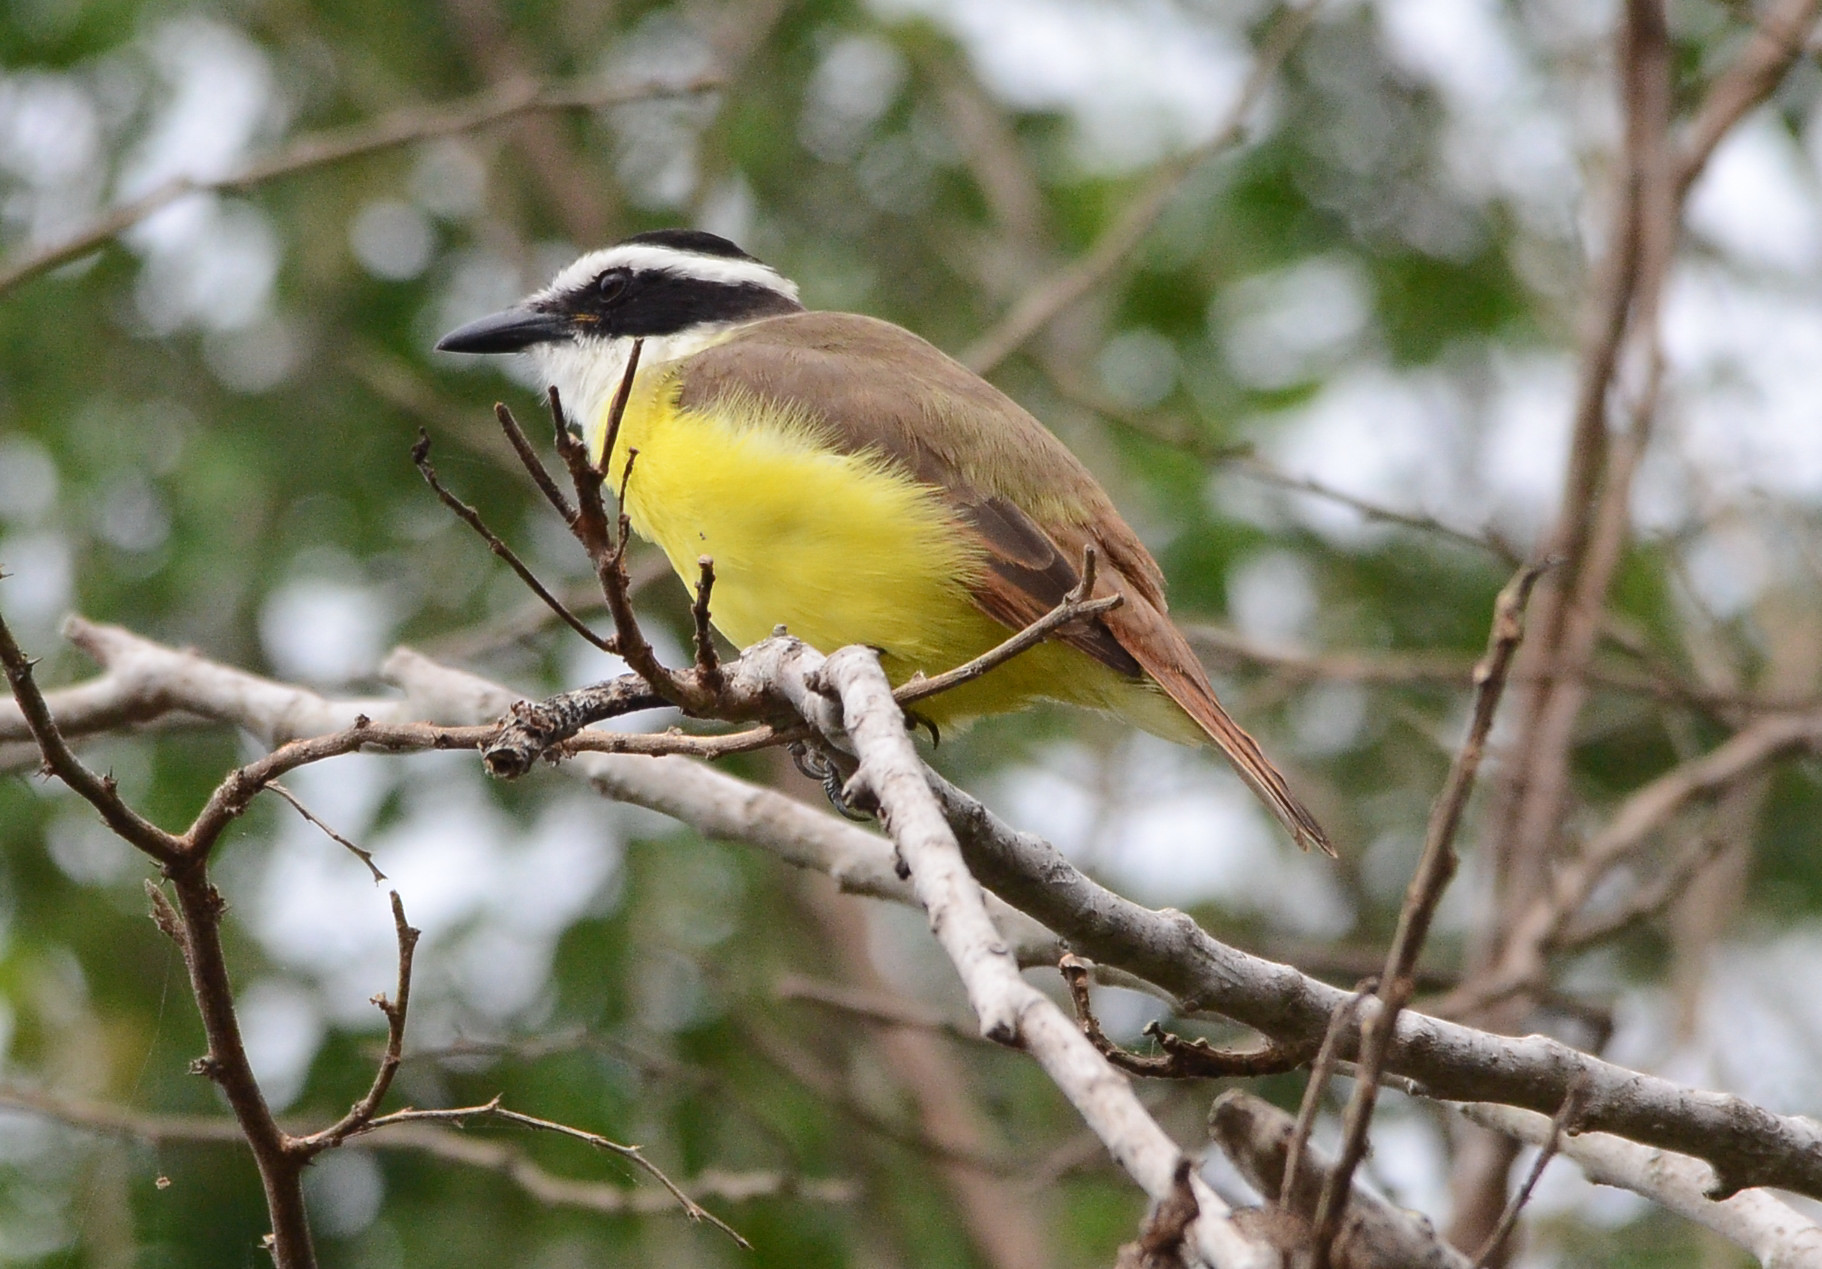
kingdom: Animalia
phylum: Chordata
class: Aves
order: Passeriformes
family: Tyrannidae
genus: Pitangus
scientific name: Pitangus sulphuratus
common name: Great kiskadee
